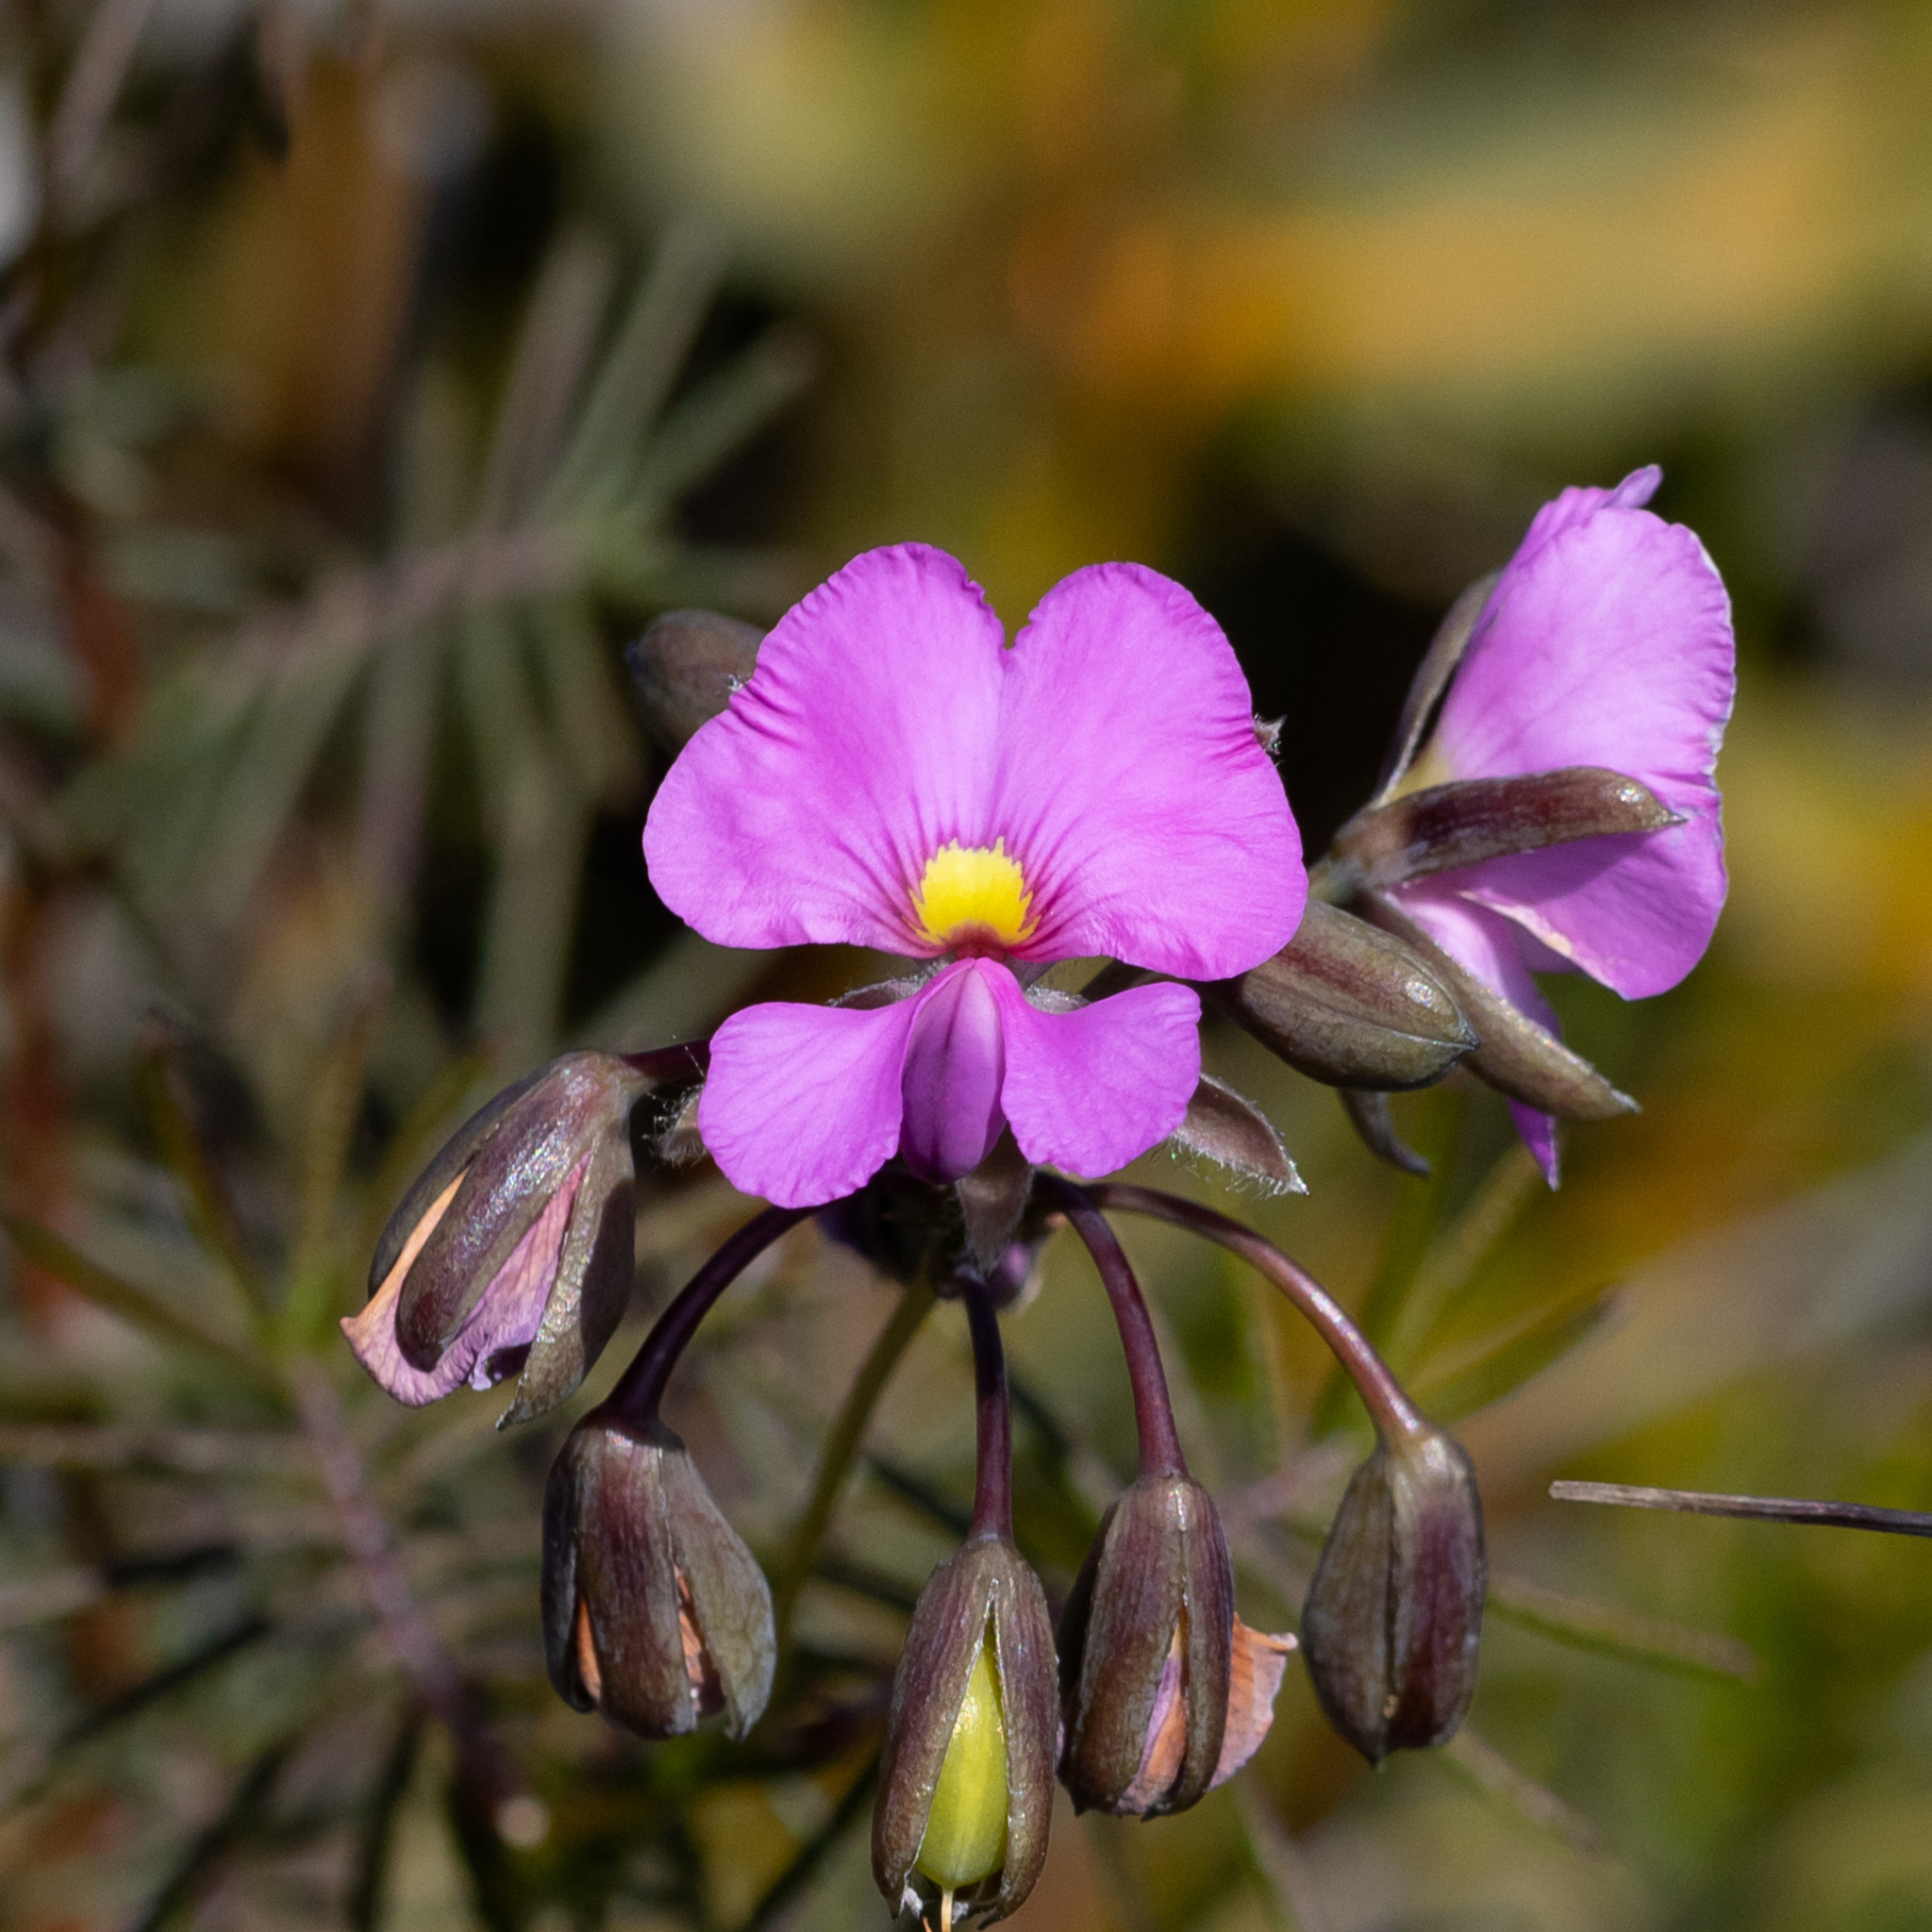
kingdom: Plantae
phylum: Tracheophyta
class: Magnoliopsida
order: Fabales
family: Fabaceae
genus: Gompholobium
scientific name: Gompholobium venustum
